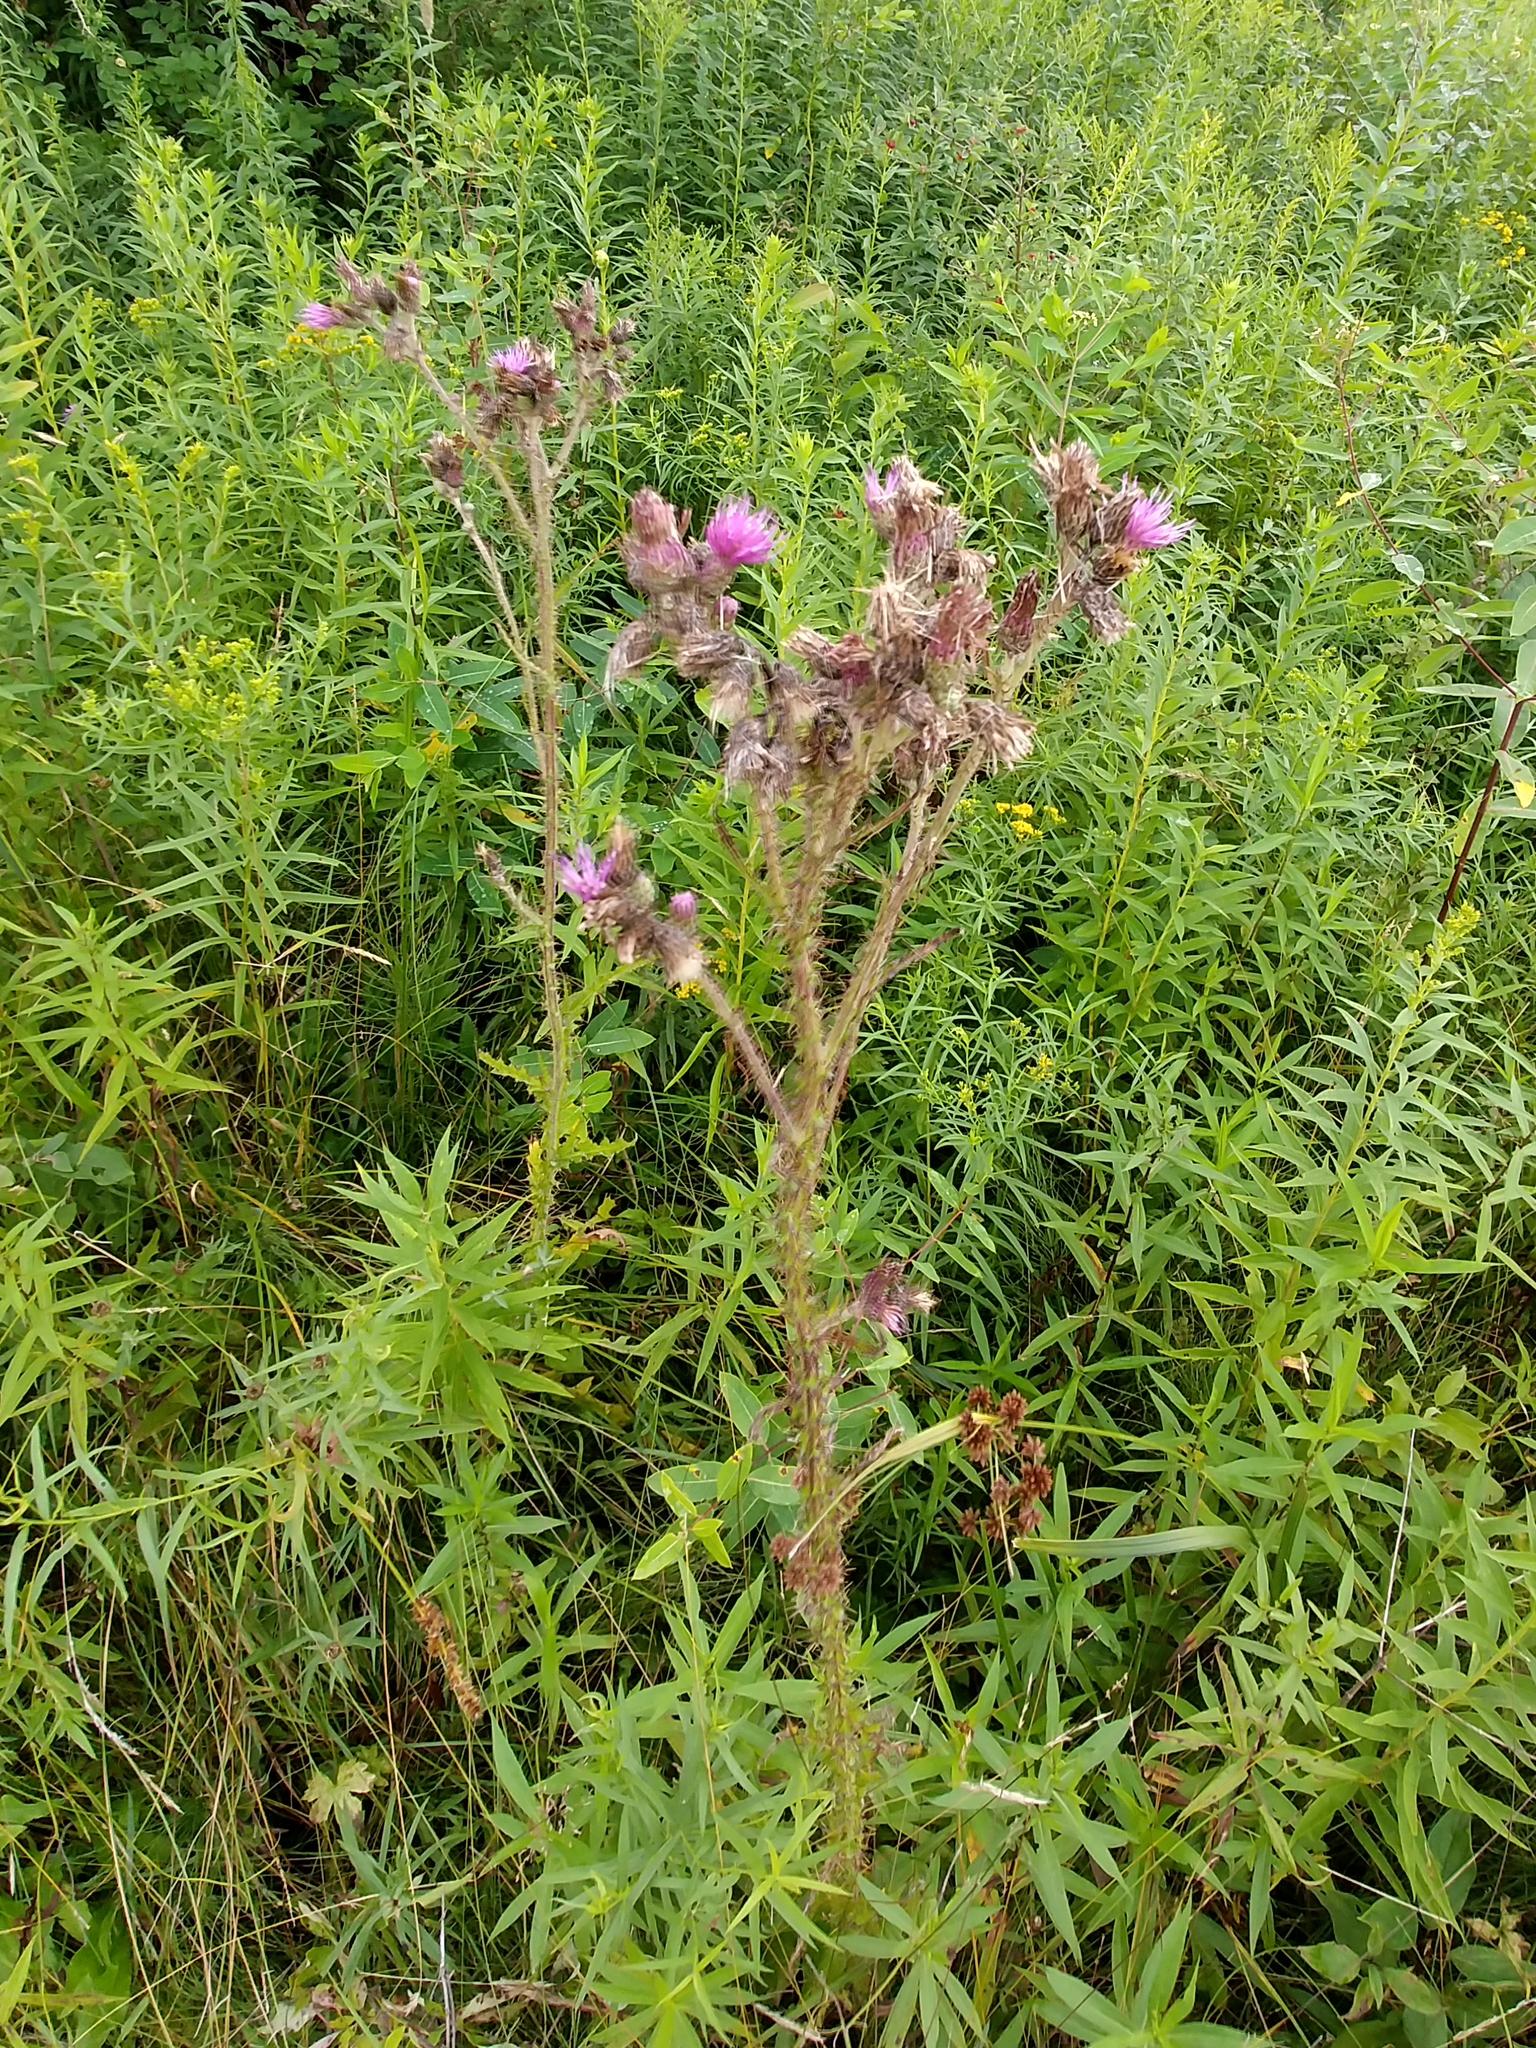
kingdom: Plantae
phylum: Tracheophyta
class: Magnoliopsida
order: Asterales
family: Asteraceae
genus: Cirsium
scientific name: Cirsium palustre
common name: Marsh thistle
